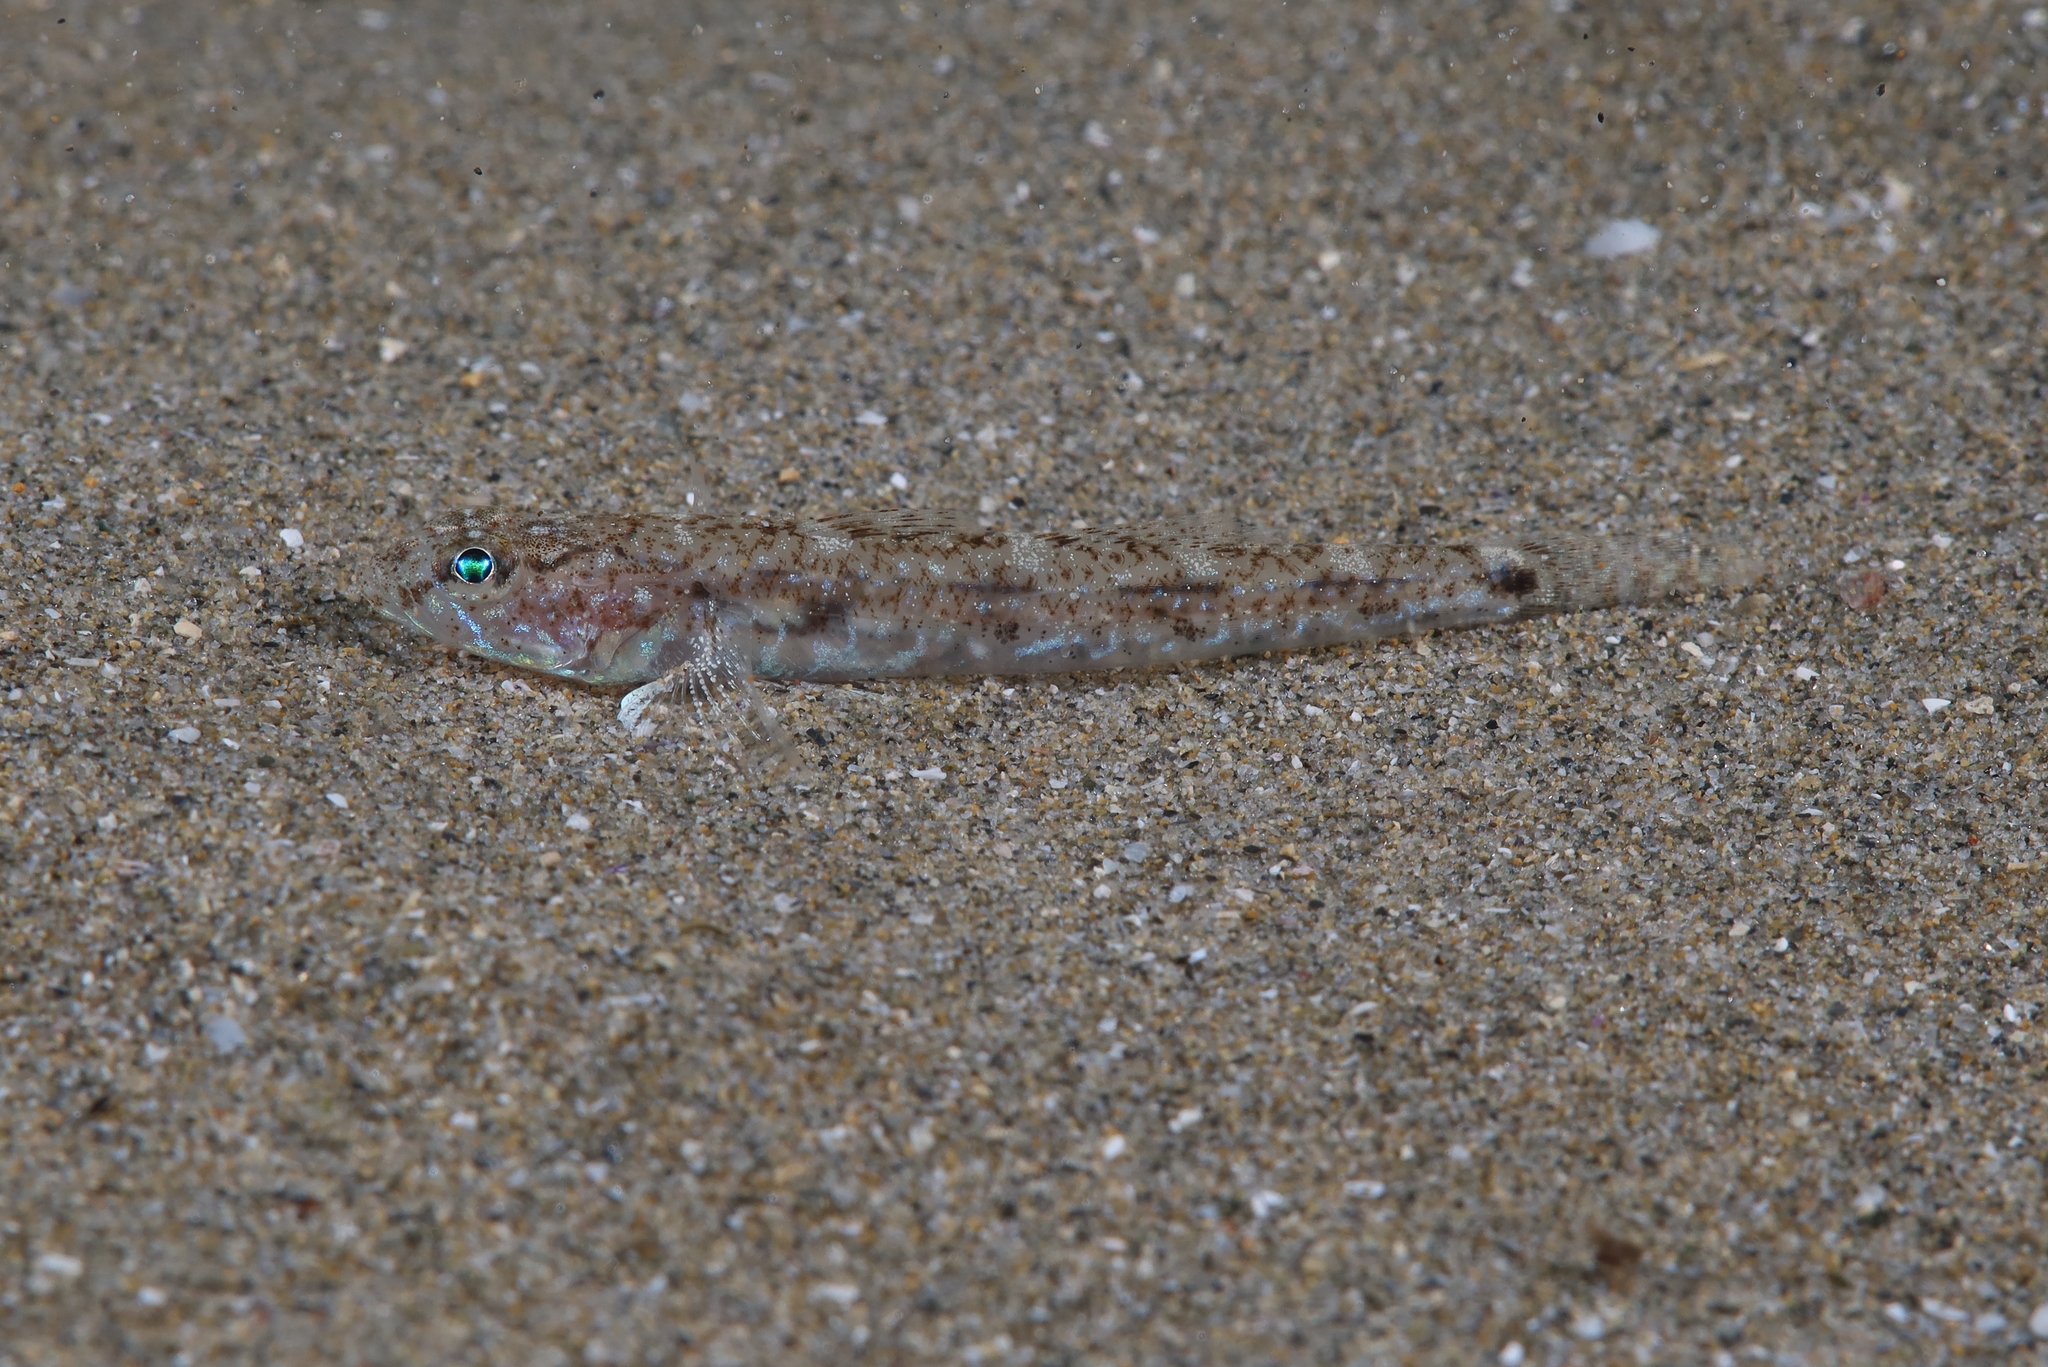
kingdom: Animalia
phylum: Chordata
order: Perciformes
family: Gobiidae
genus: Pomatoschistus
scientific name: Pomatoschistus marmoratus
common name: Marbled goby
